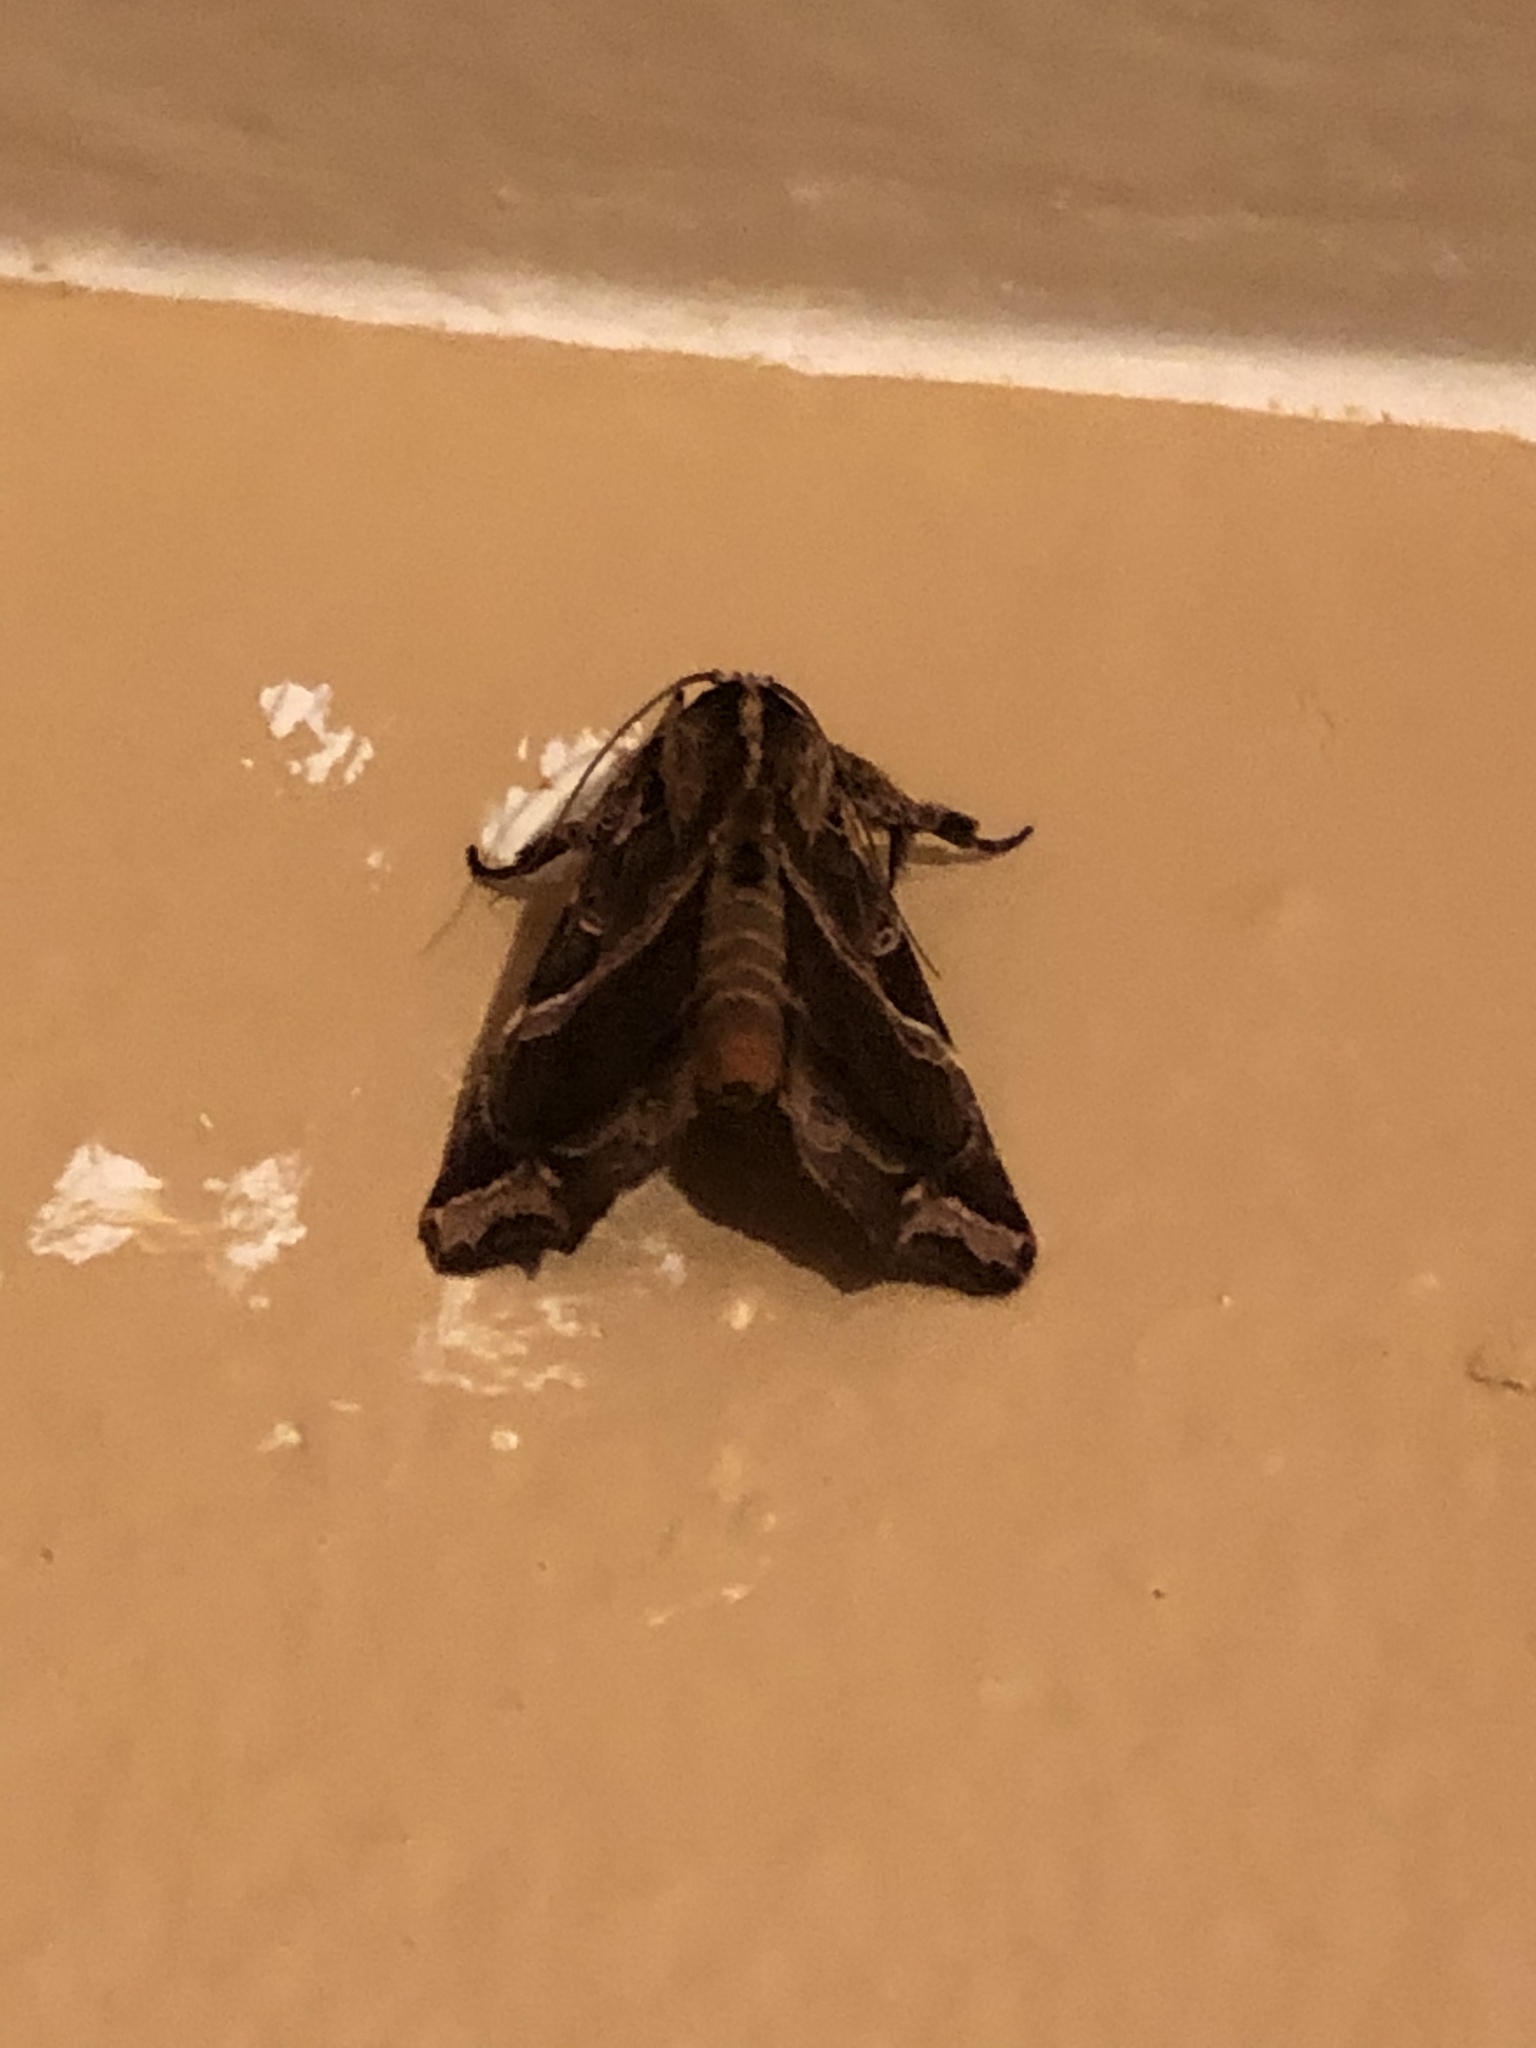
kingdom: Animalia
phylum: Arthropoda
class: Insecta
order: Lepidoptera
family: Noctuidae
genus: Callopistria
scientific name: Callopistria floridensis
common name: Florida fern moth
